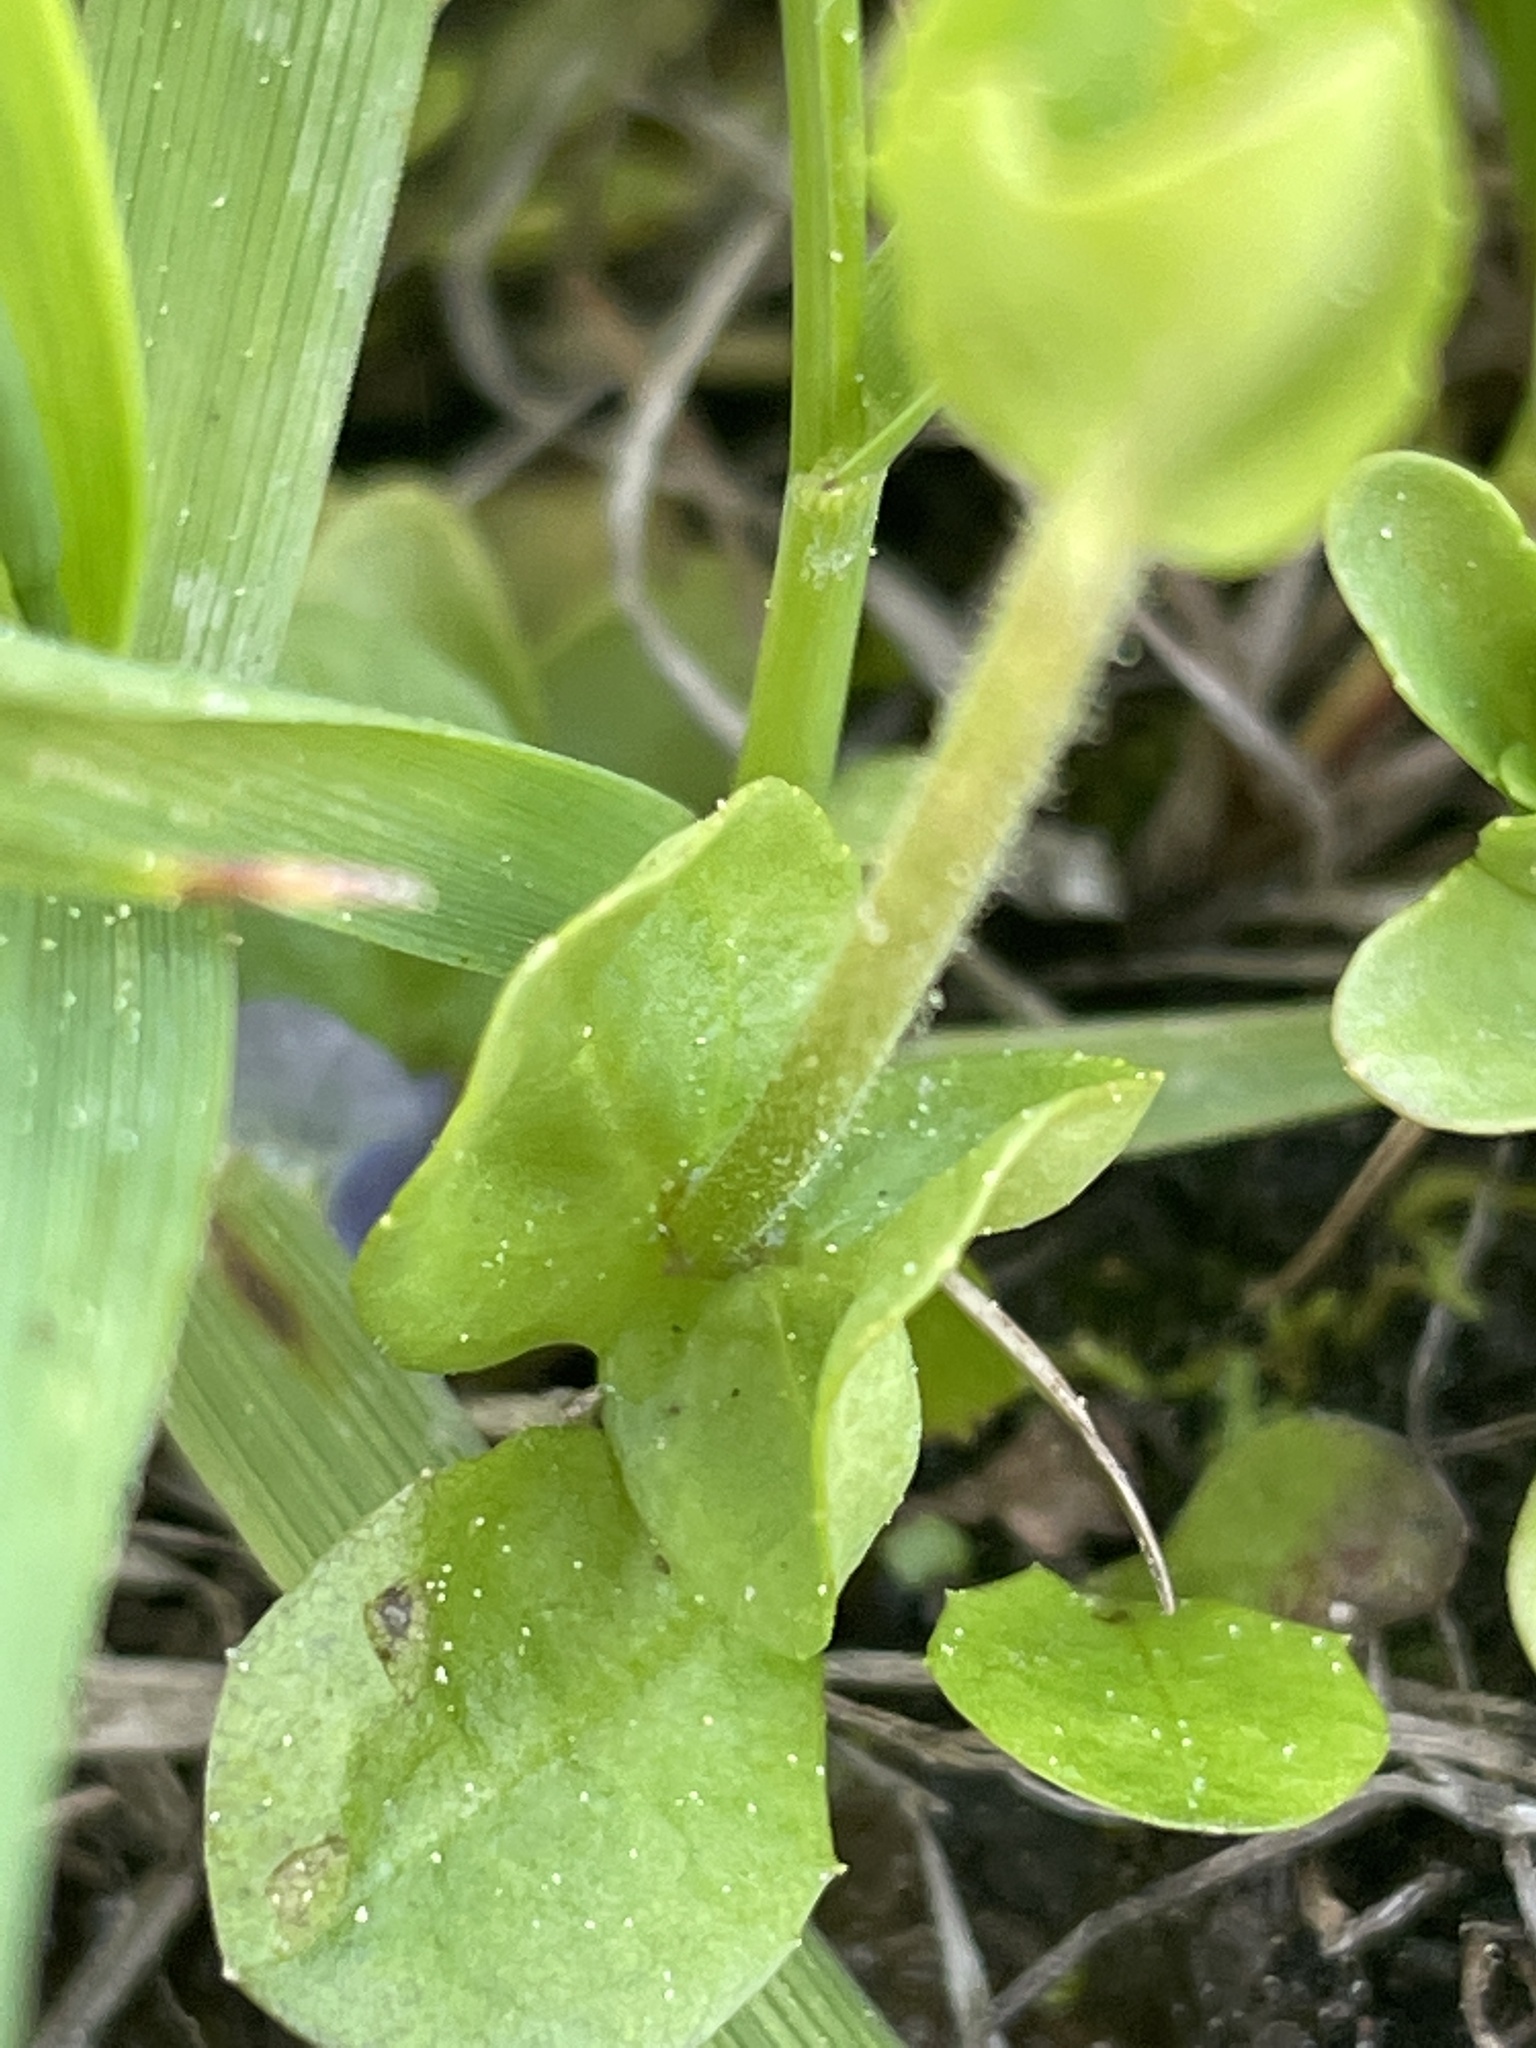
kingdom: Plantae
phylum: Tracheophyta
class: Magnoliopsida
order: Lamiales
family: Plantaginaceae
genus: Veronica
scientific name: Veronica serpyllifolia
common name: Thyme-leaved speedwell
